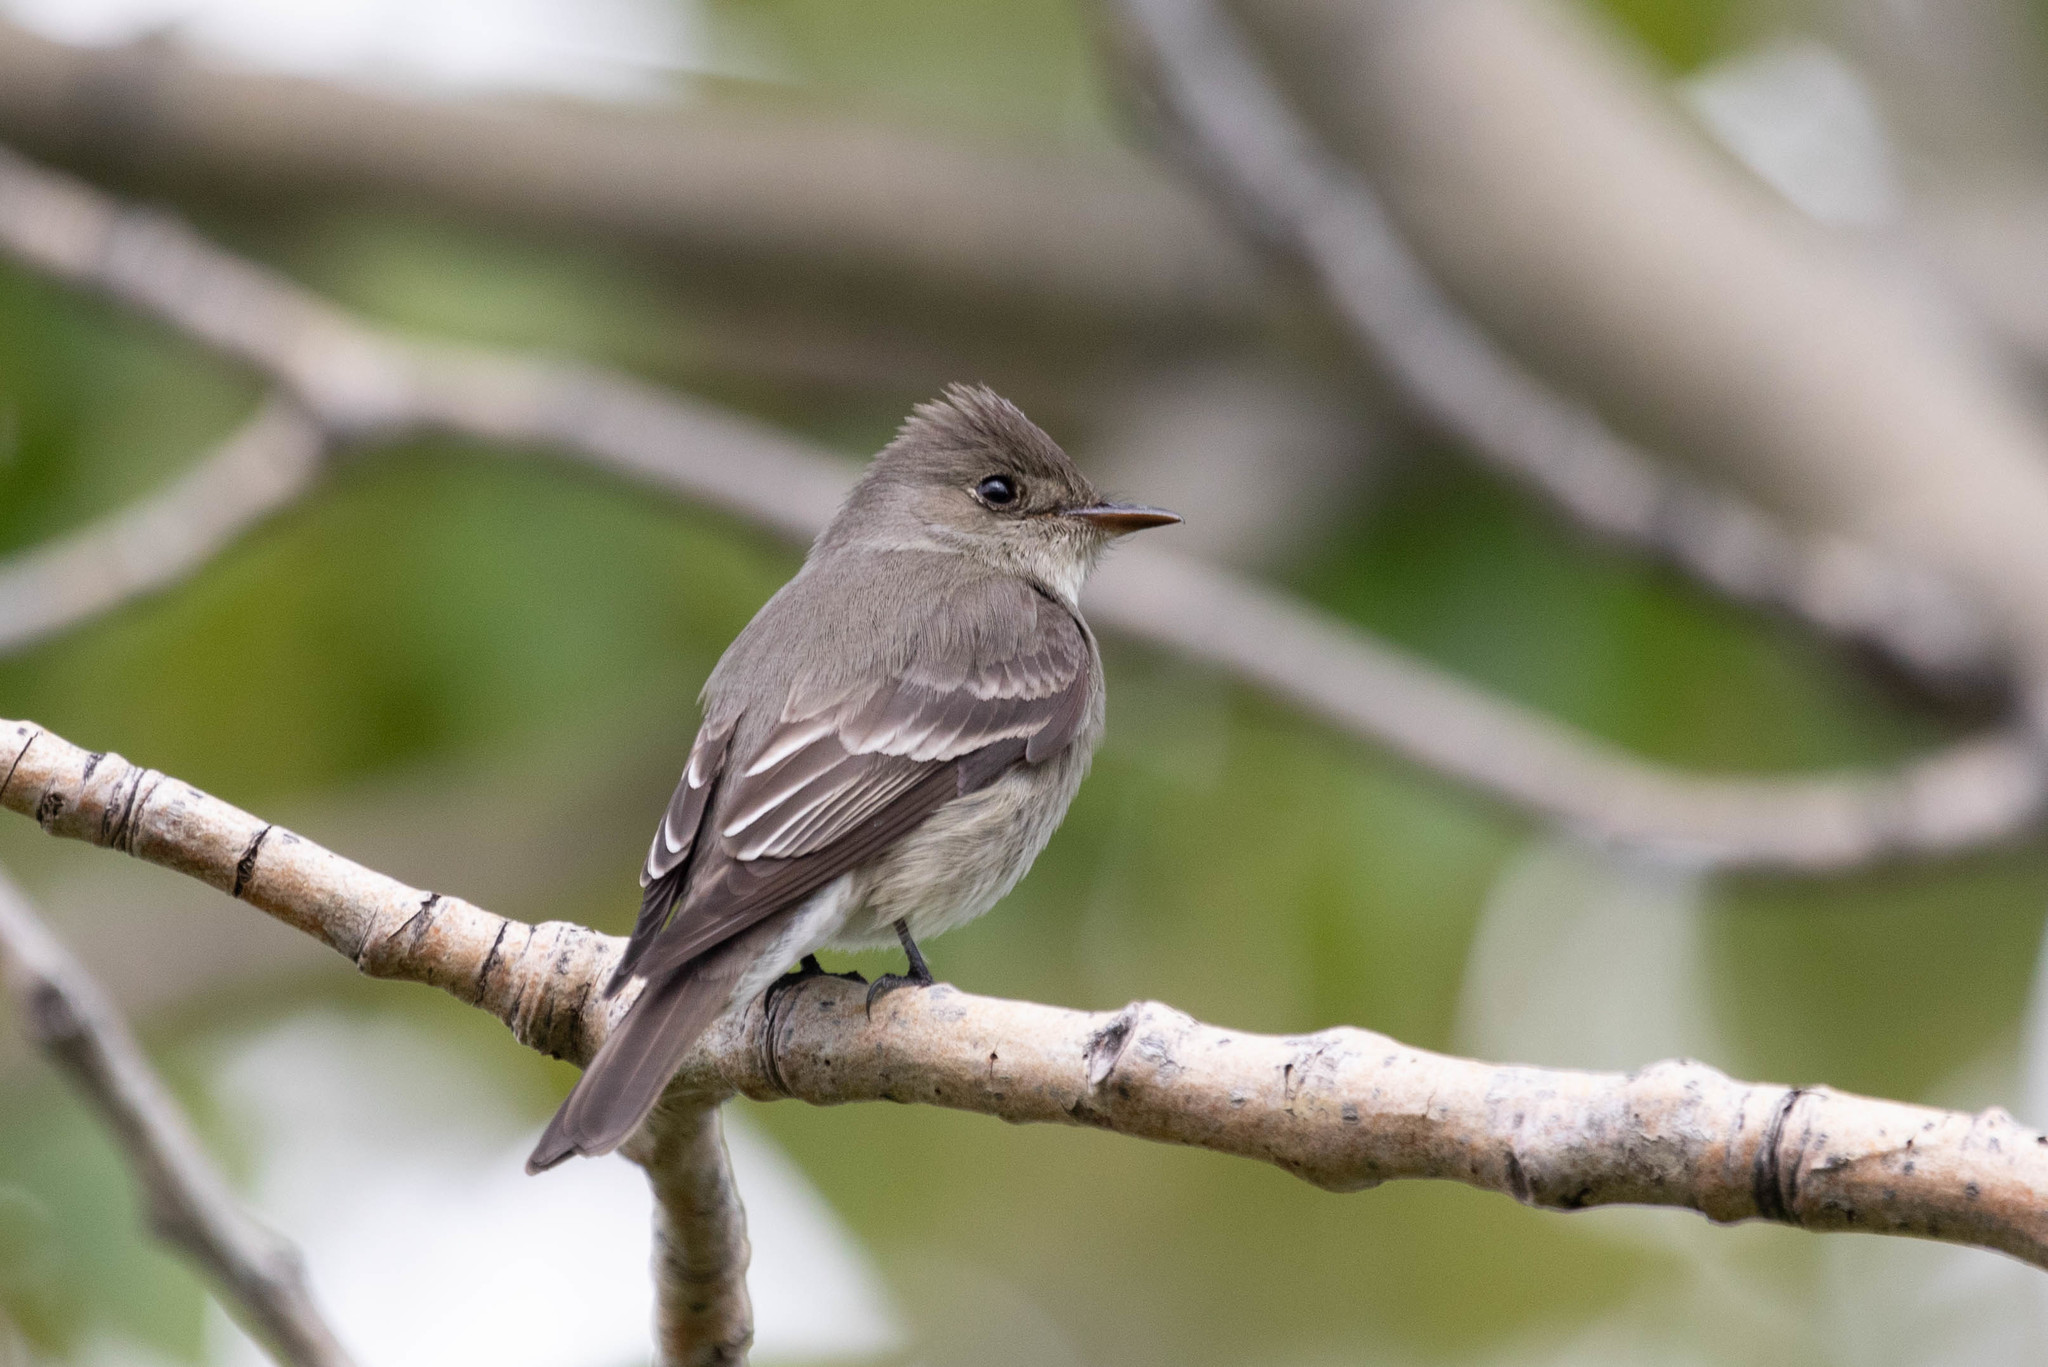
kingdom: Animalia
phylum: Chordata
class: Aves
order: Passeriformes
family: Tyrannidae
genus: Contopus
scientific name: Contopus sordidulus
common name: Western wood-pewee
